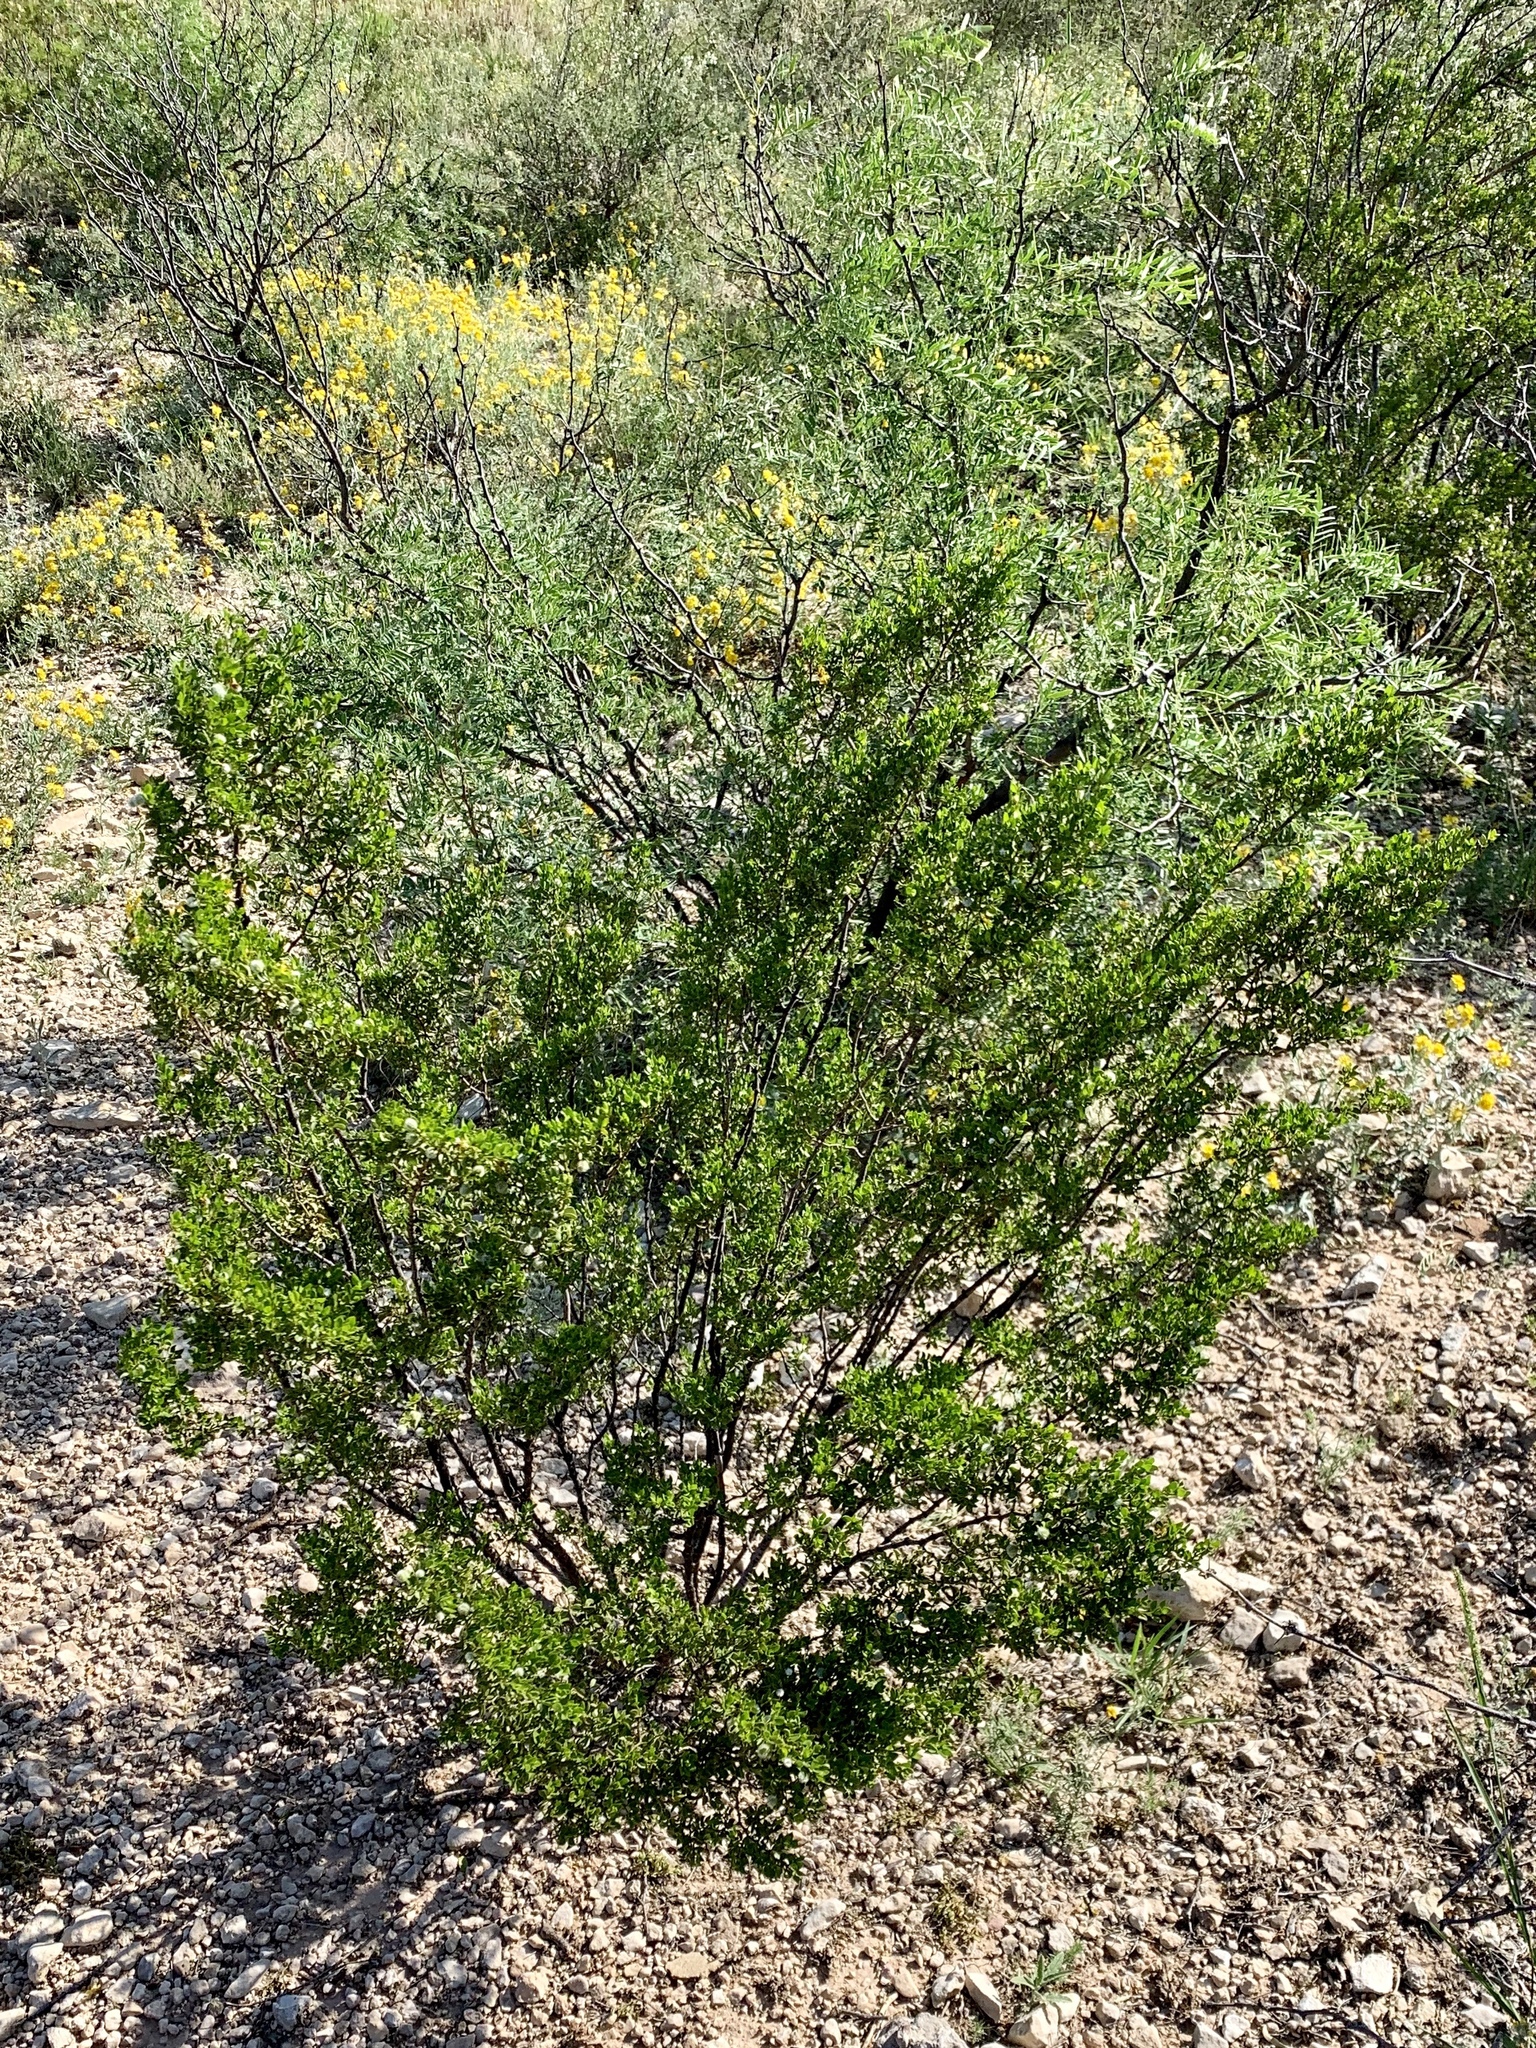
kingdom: Plantae
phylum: Tracheophyta
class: Magnoliopsida
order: Zygophyllales
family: Zygophyllaceae
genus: Larrea
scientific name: Larrea tridentata
